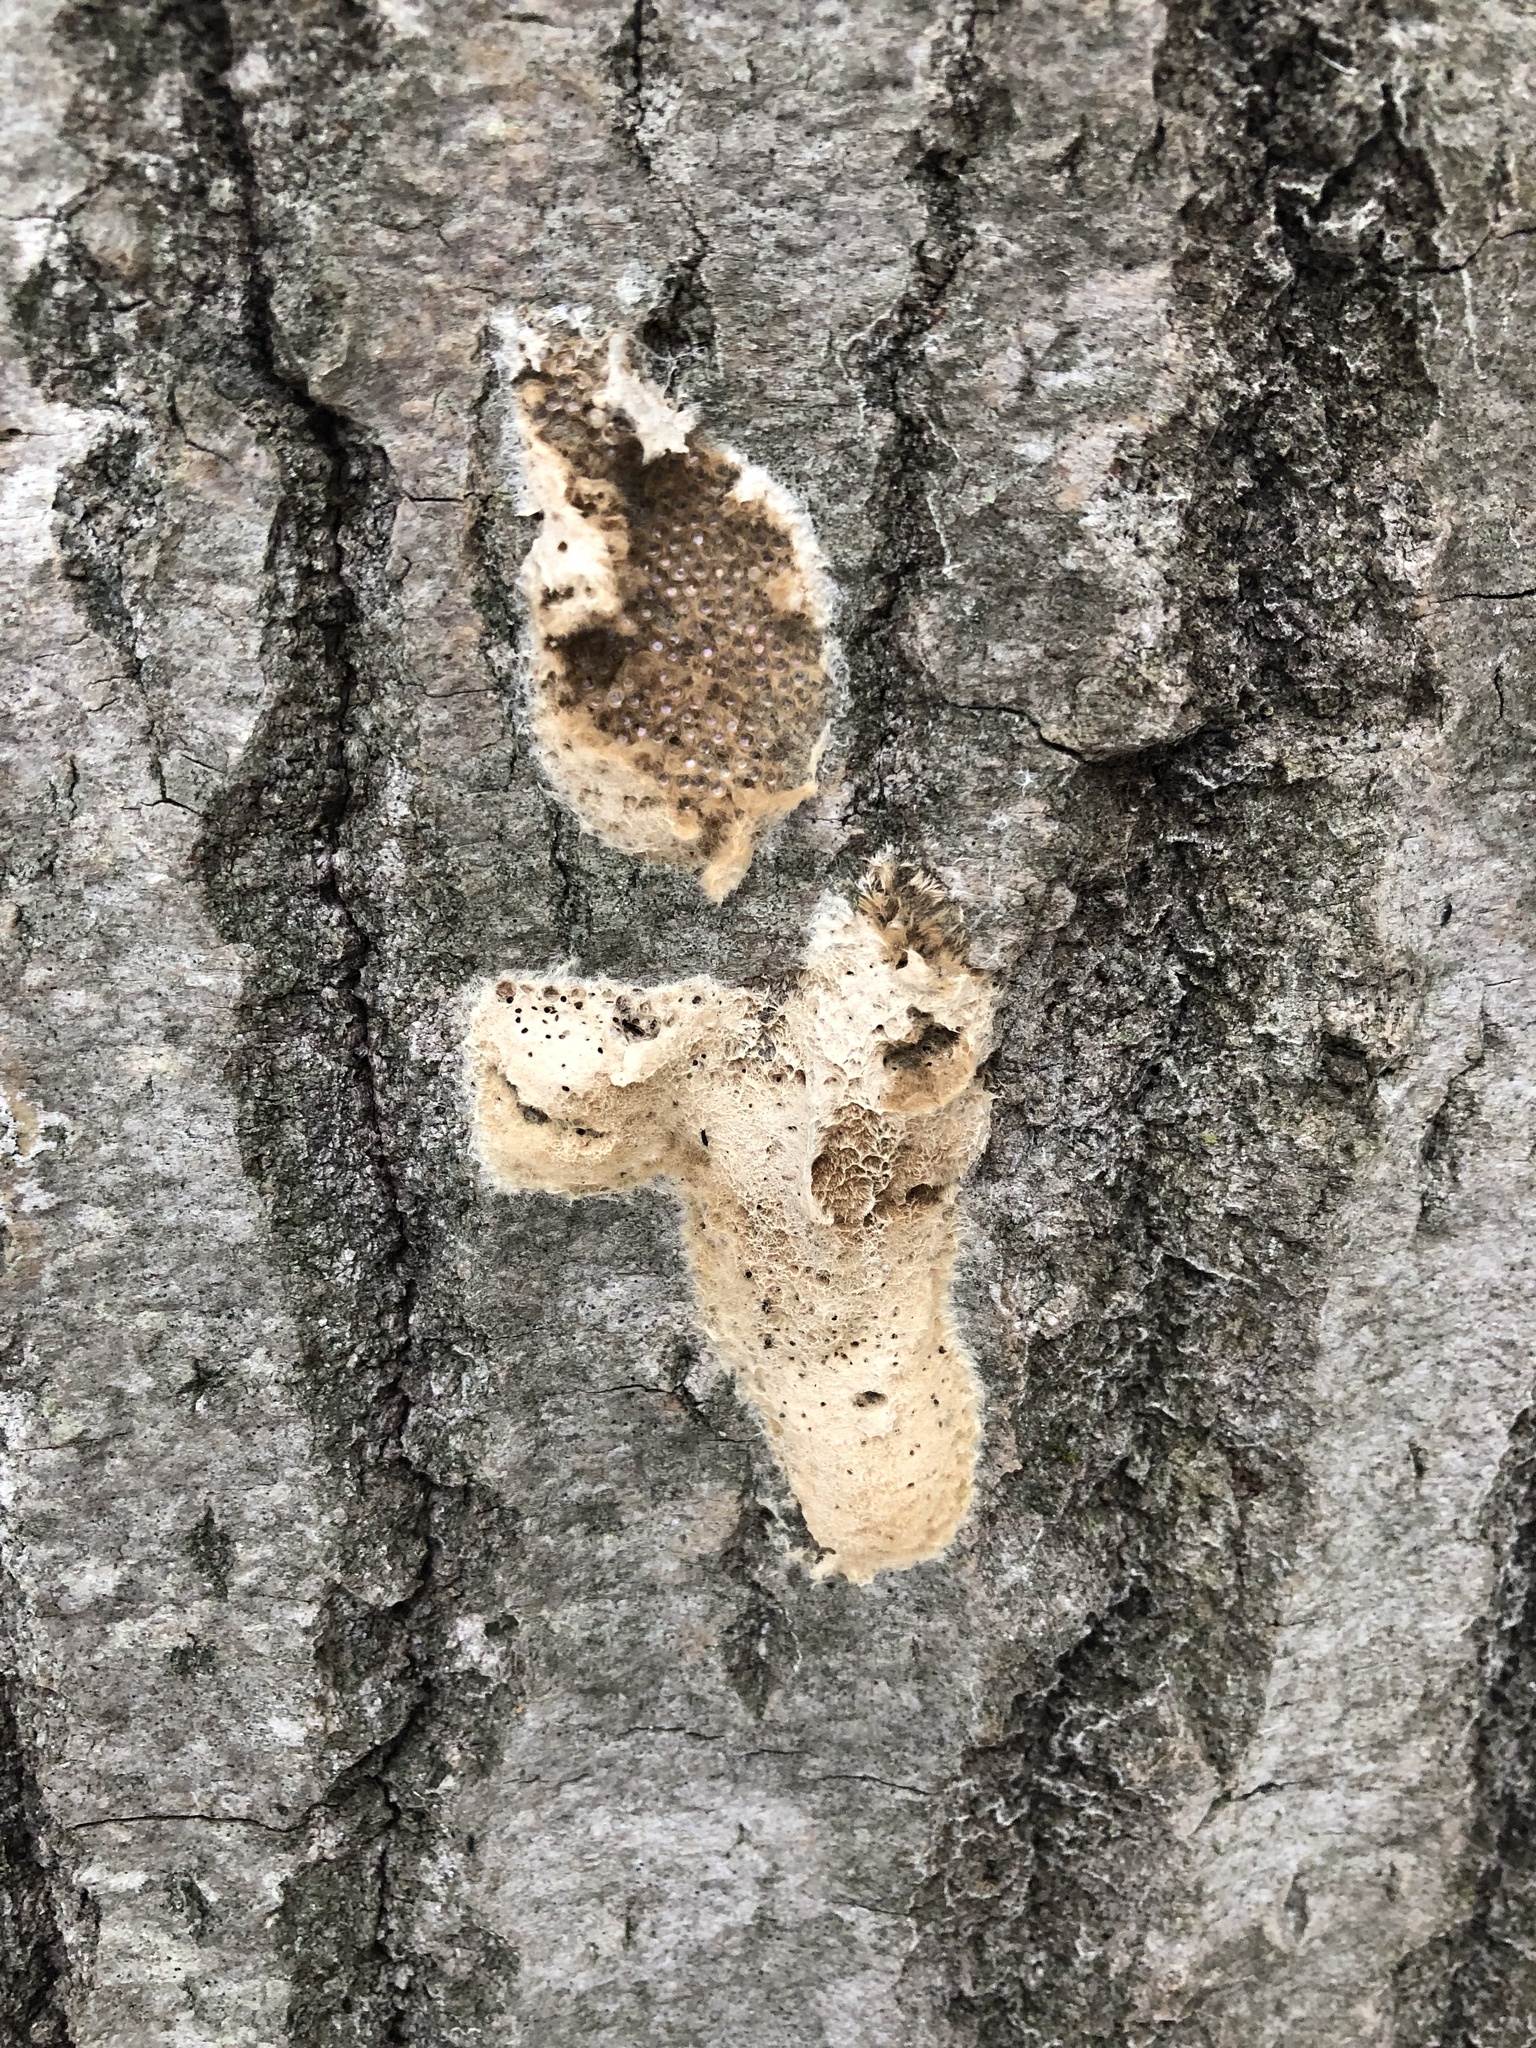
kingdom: Animalia
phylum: Arthropoda
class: Insecta
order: Lepidoptera
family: Erebidae
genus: Lymantria
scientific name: Lymantria dispar
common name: Gypsy moth
